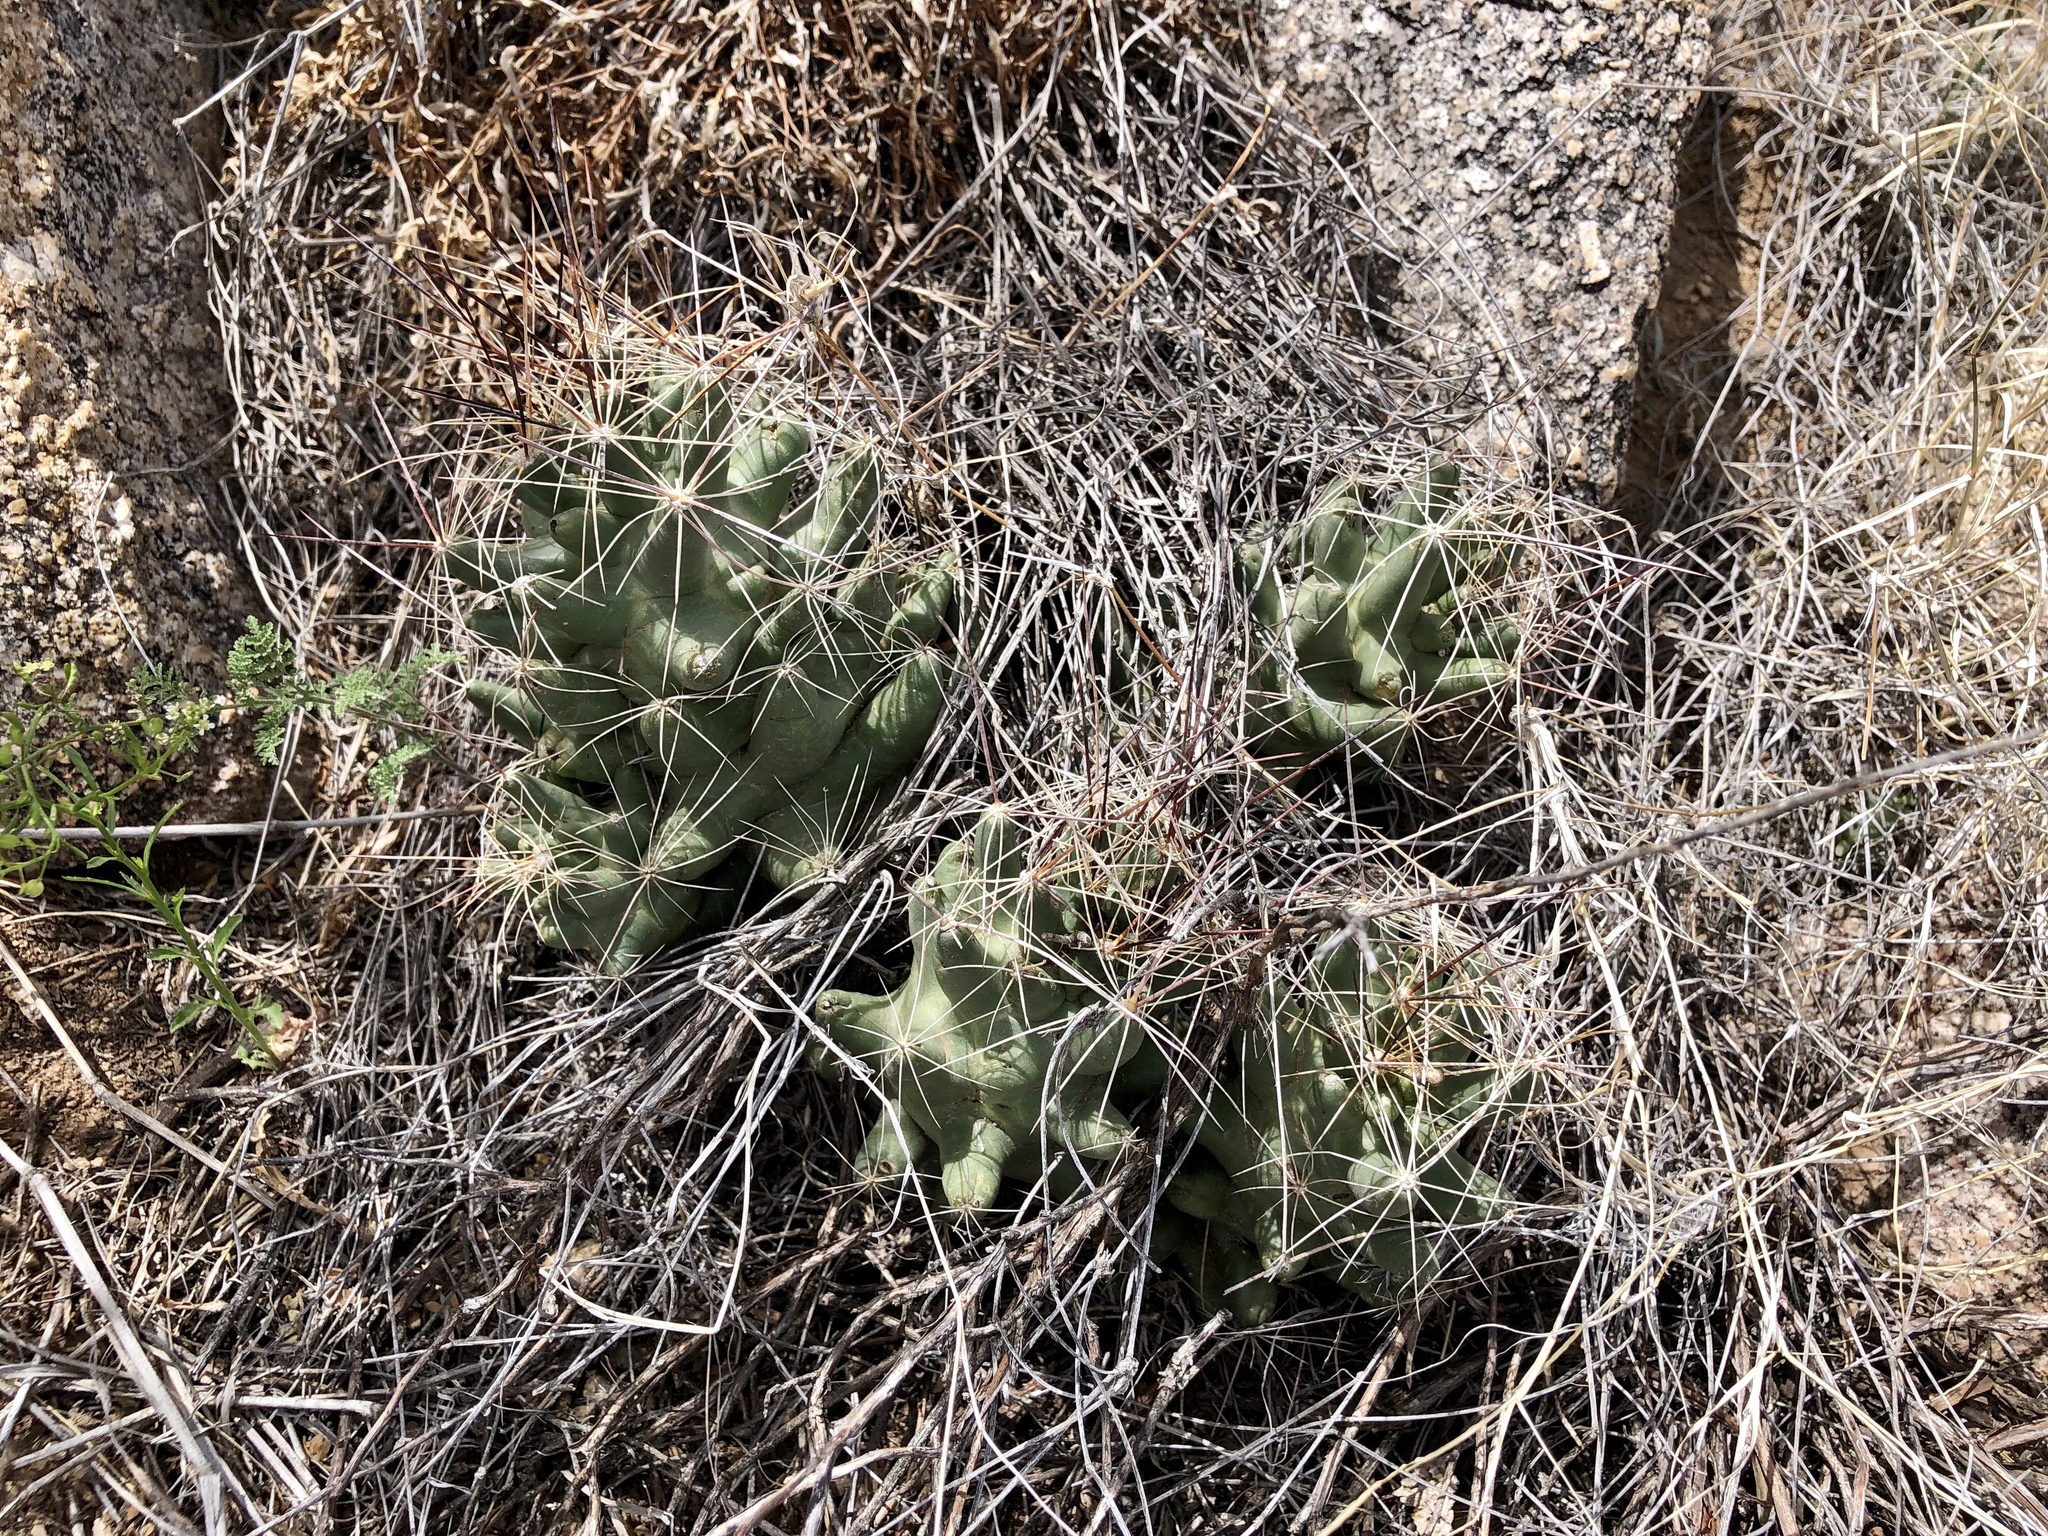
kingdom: Plantae
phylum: Tracheophyta
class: Magnoliopsida
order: Caryophyllales
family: Cactaceae
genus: Coryphantha
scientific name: Coryphantha macromeris
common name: Nipple beehive cactus
